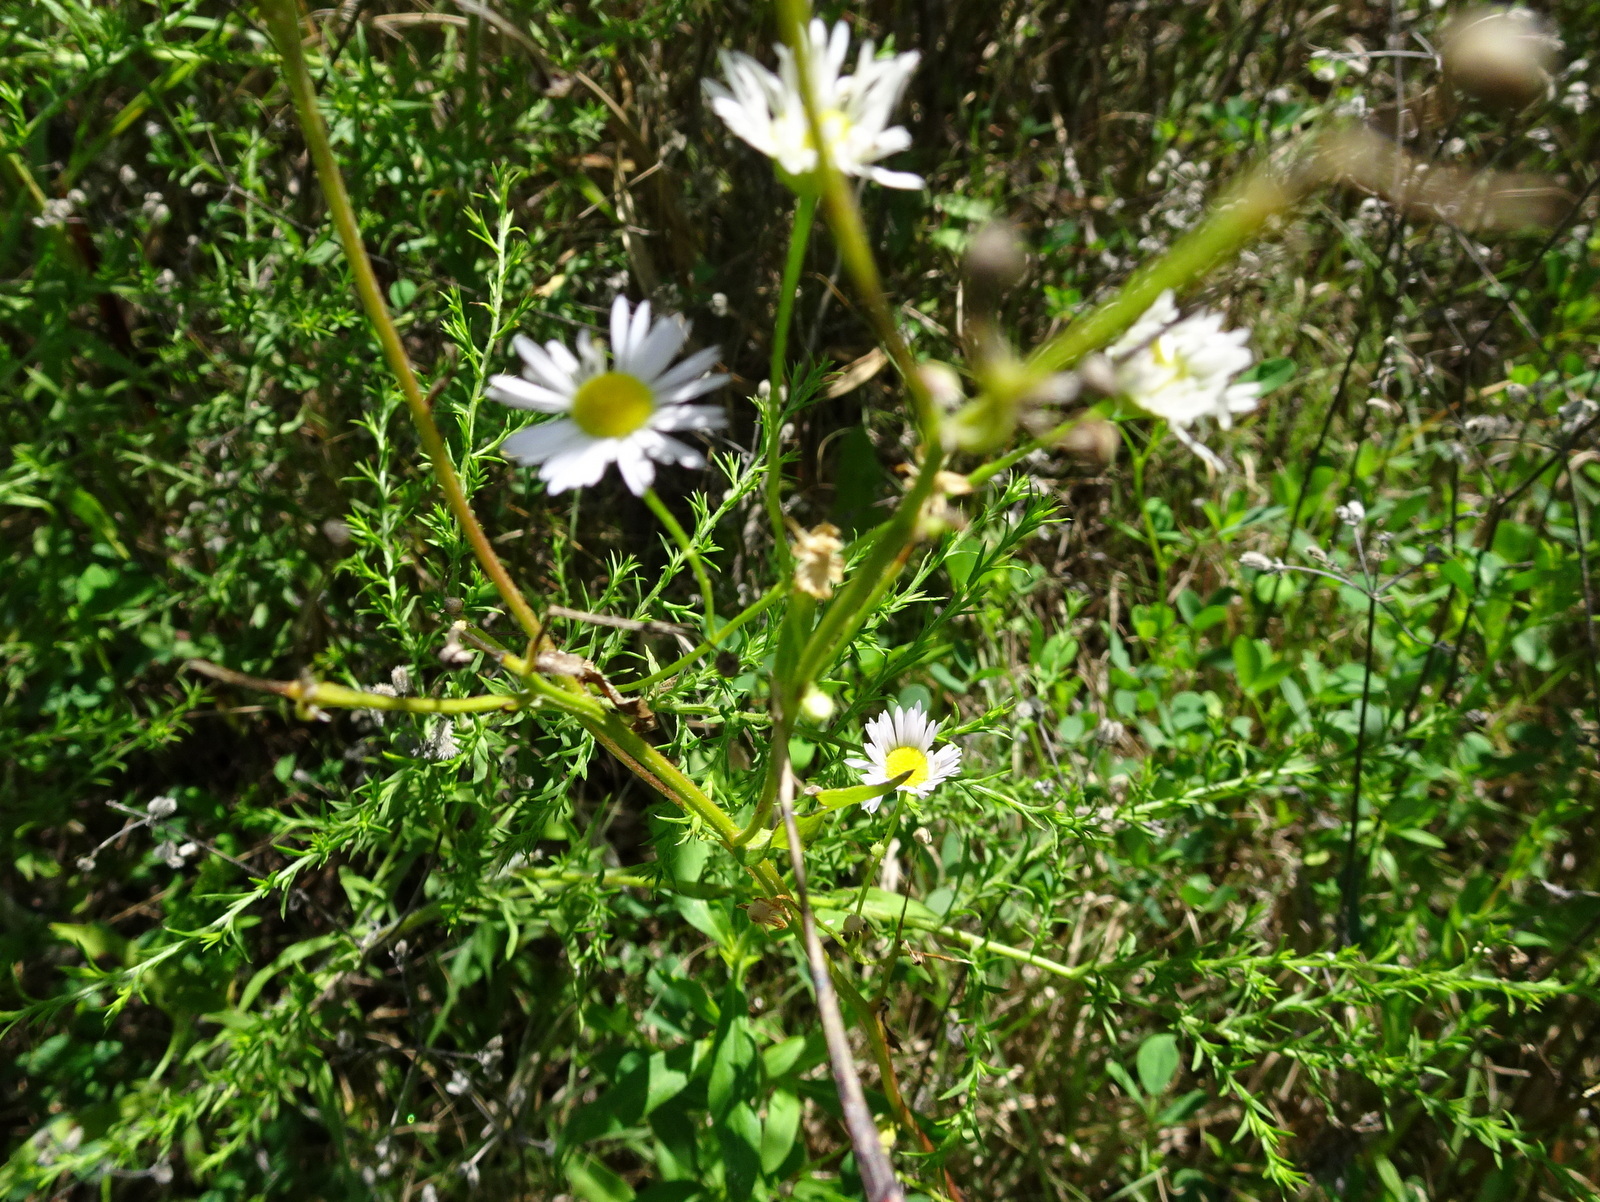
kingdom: Plantae
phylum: Tracheophyta
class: Magnoliopsida
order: Asterales
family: Asteraceae
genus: Erigeron
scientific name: Erigeron strigosus
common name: Common eastern fleabane
